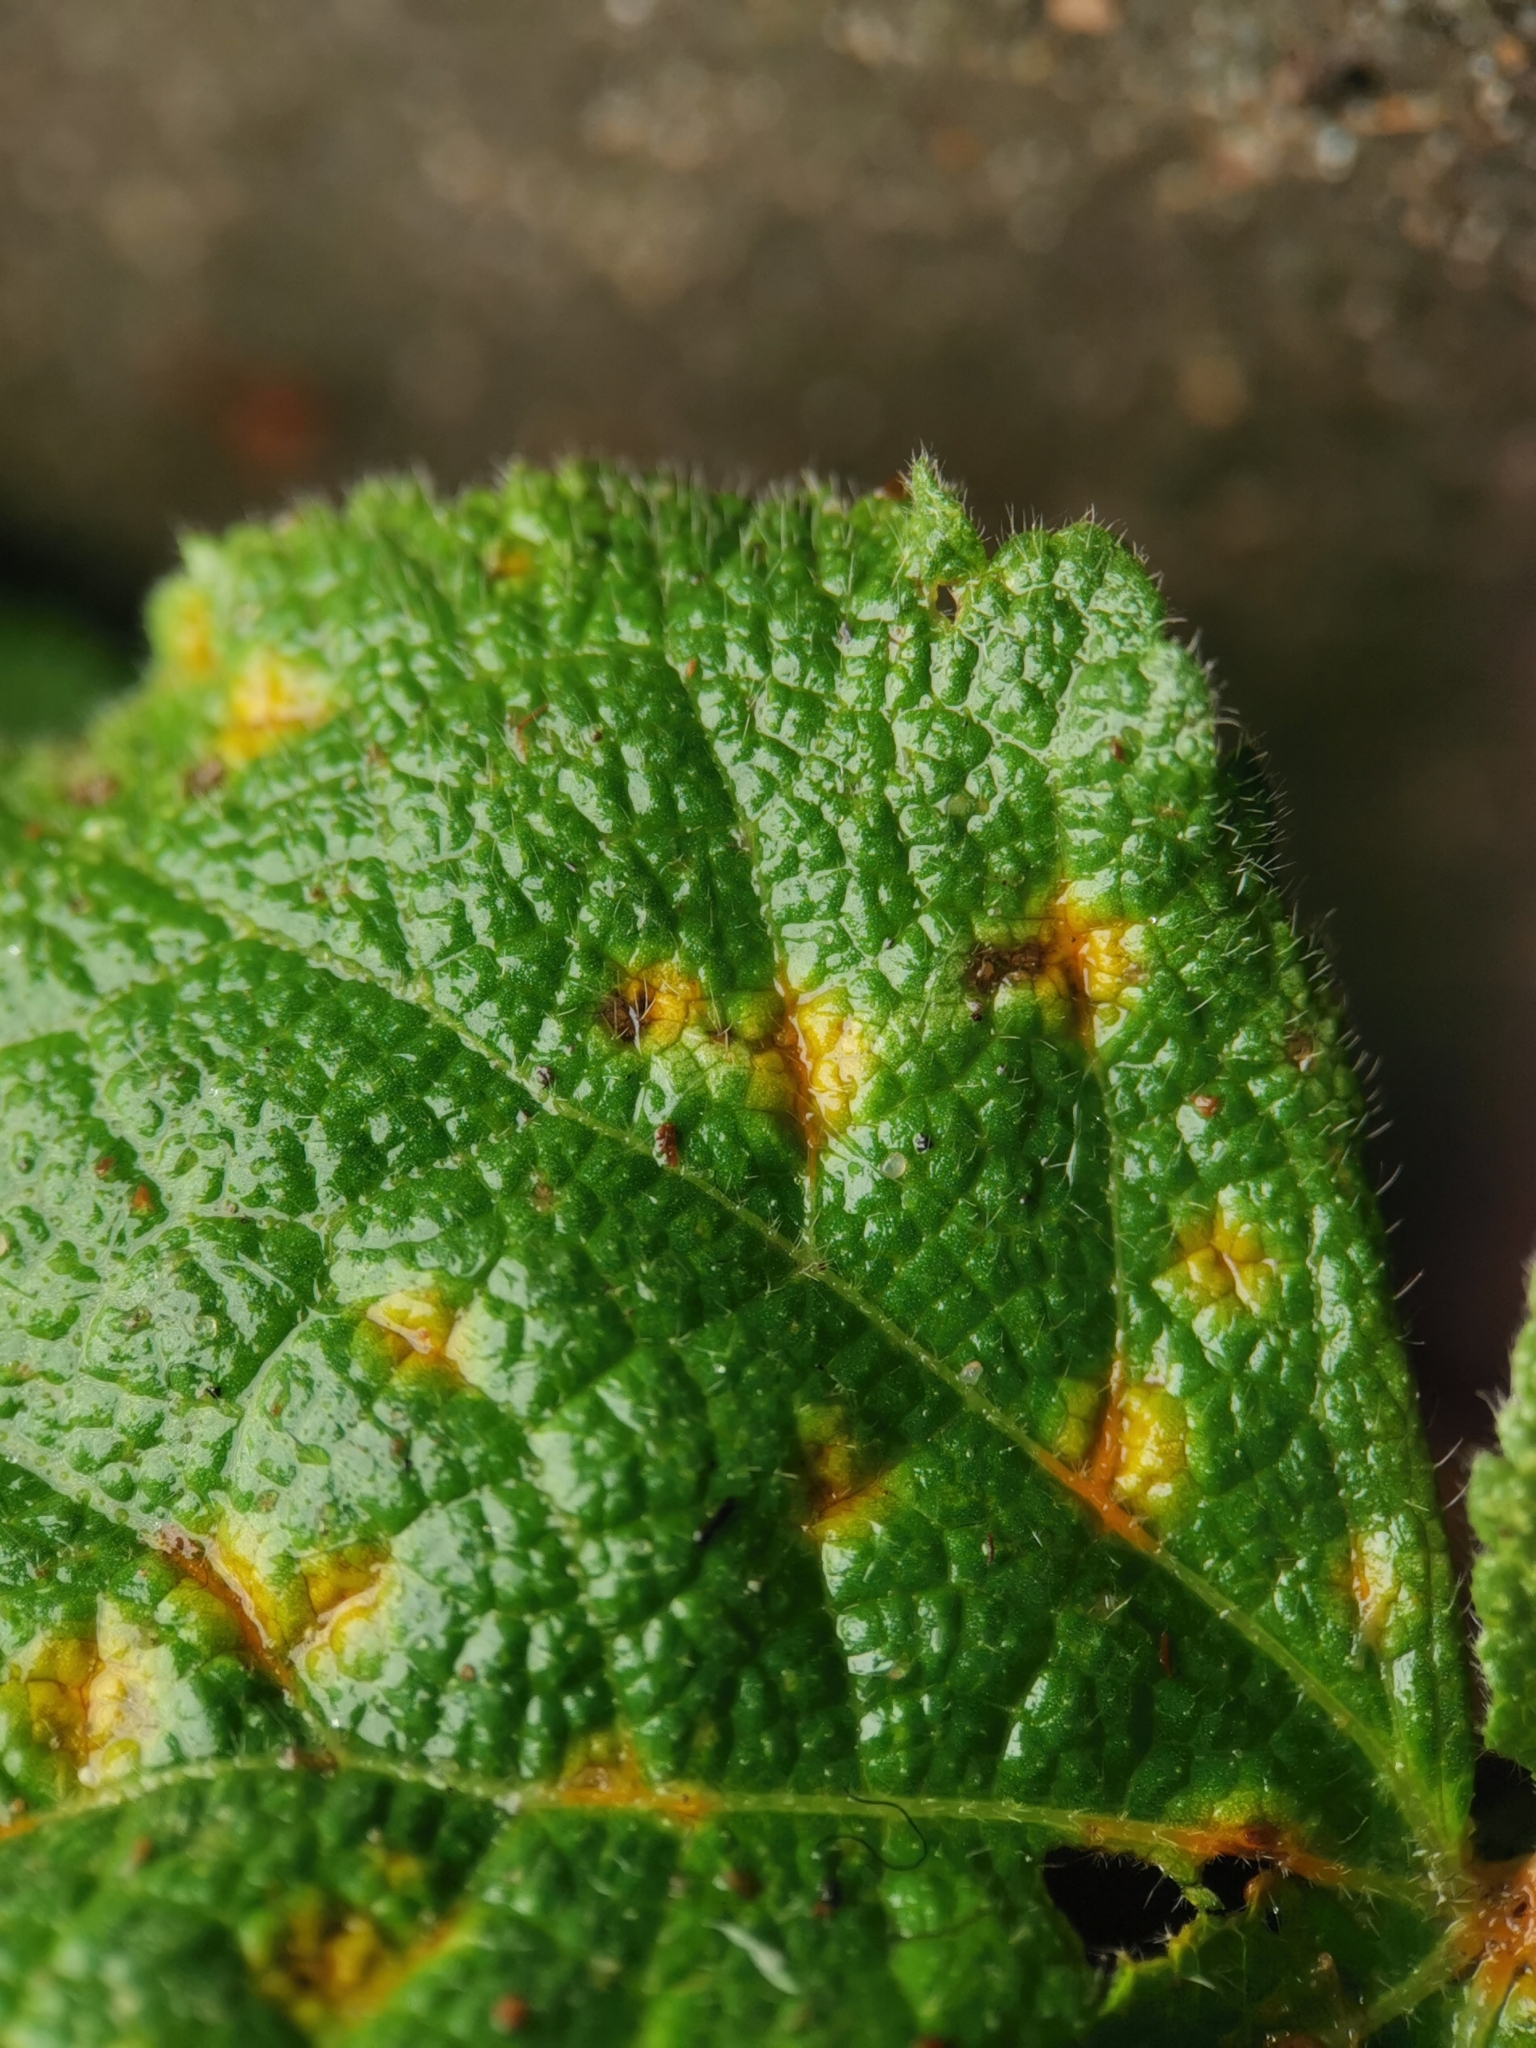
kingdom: Fungi
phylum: Basidiomycota
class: Pucciniomycetes
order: Pucciniales
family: Pucciniaceae
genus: Puccinia
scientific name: Puccinia malvacearum
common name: Hollyhock rust
